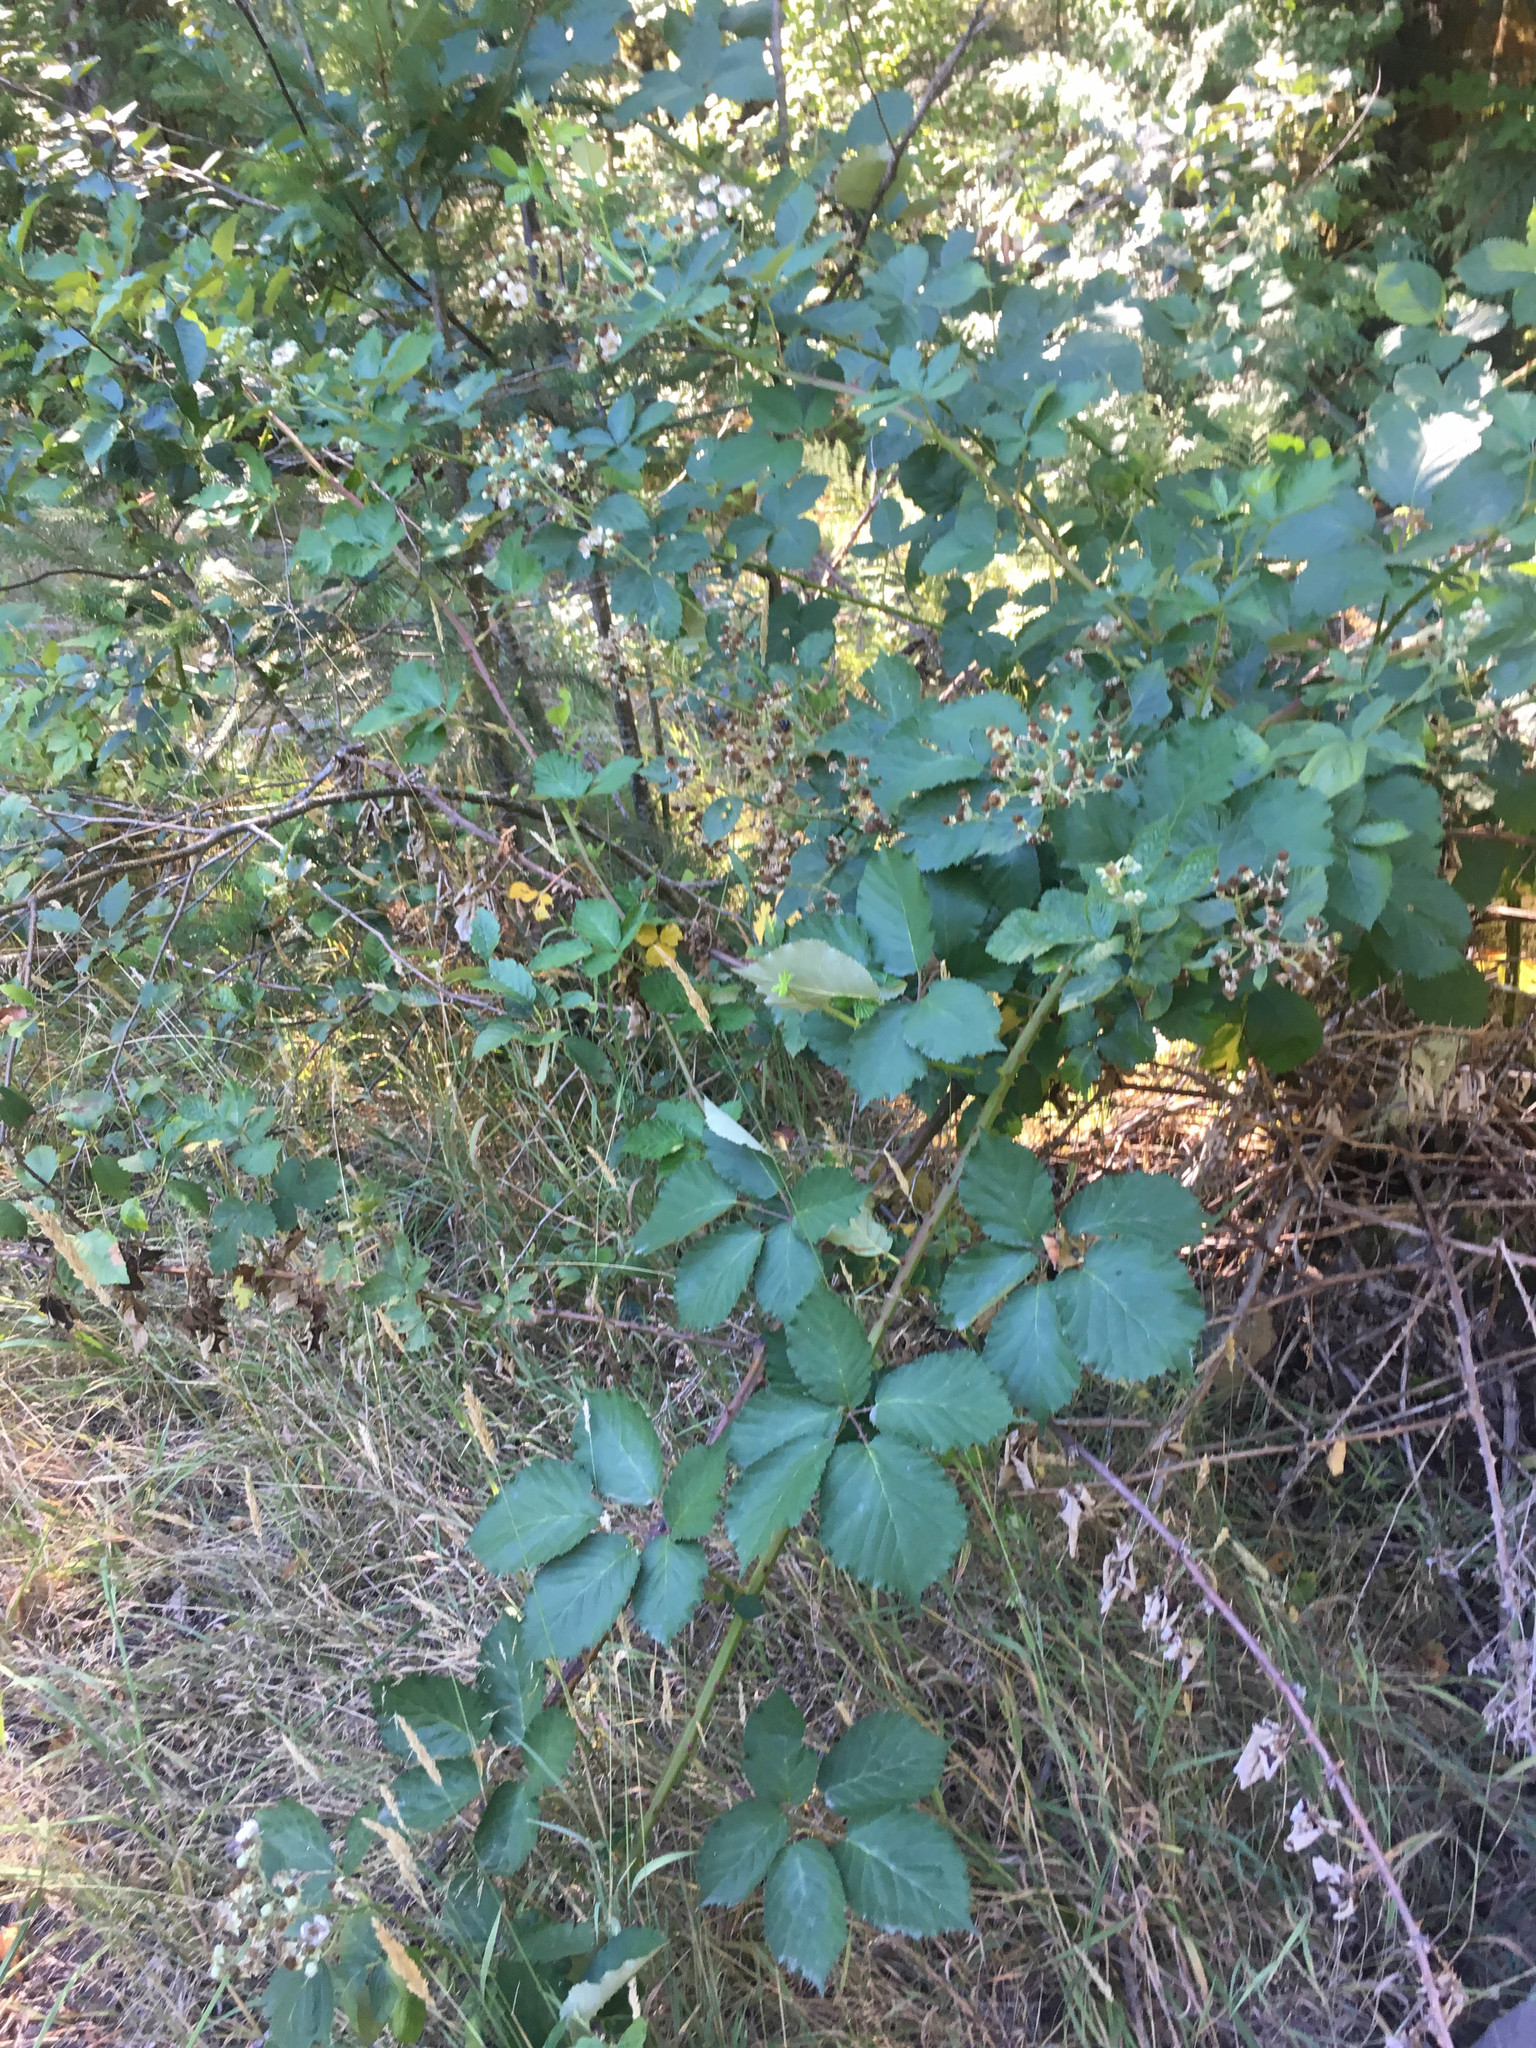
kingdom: Plantae
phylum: Tracheophyta
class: Magnoliopsida
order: Rosales
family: Rosaceae
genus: Rubus
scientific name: Rubus armeniacus
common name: Himalayan blackberry
